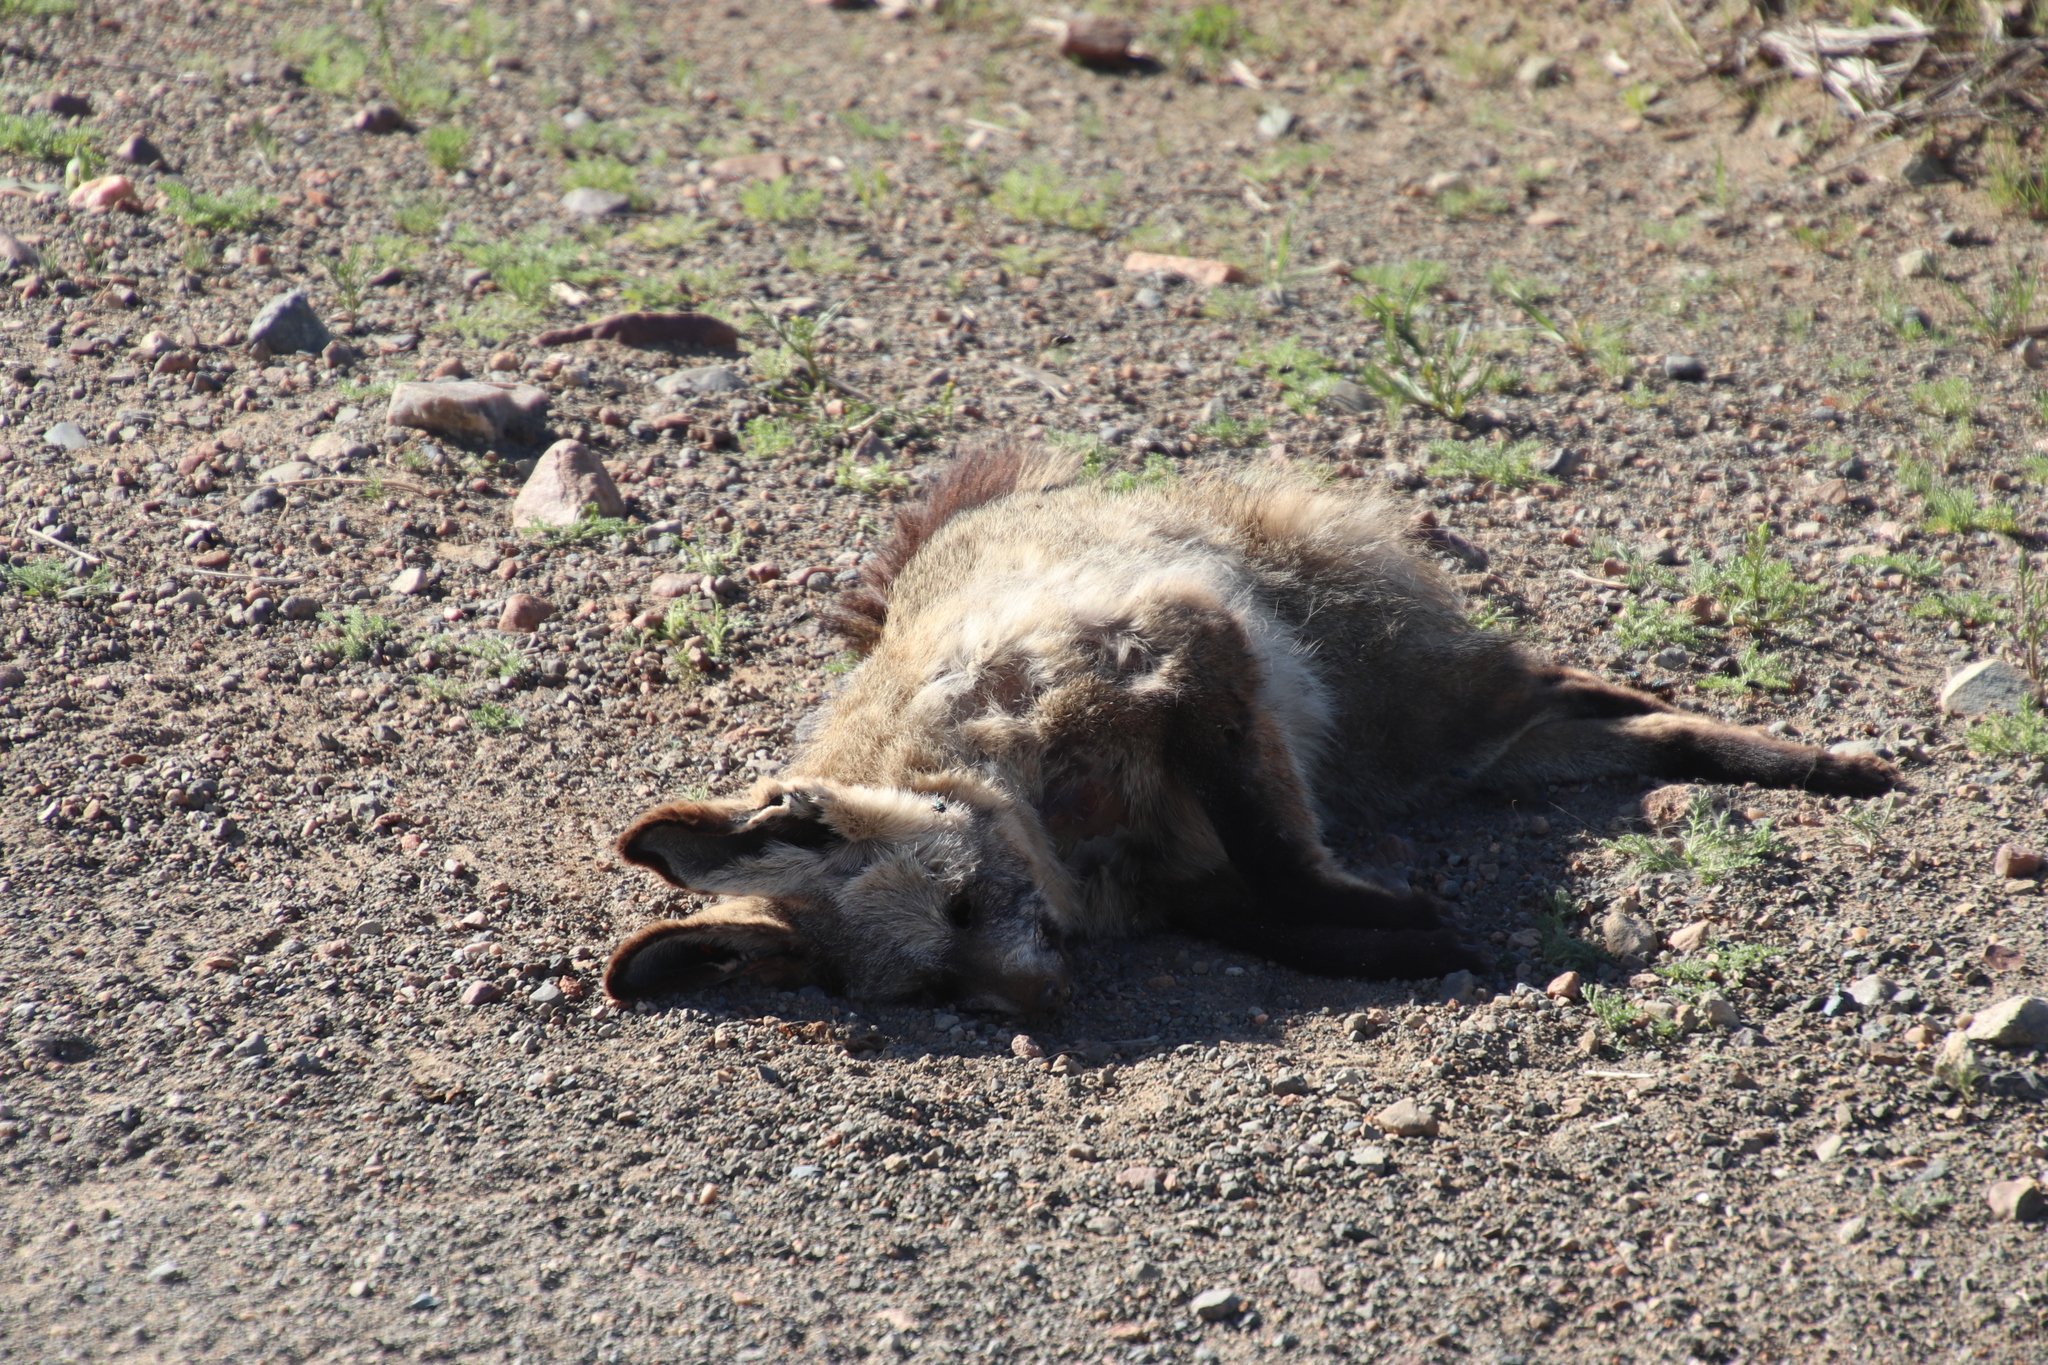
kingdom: Animalia
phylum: Chordata
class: Mammalia
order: Carnivora
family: Canidae
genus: Otocyon
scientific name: Otocyon megalotis
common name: Bat-eared fox
